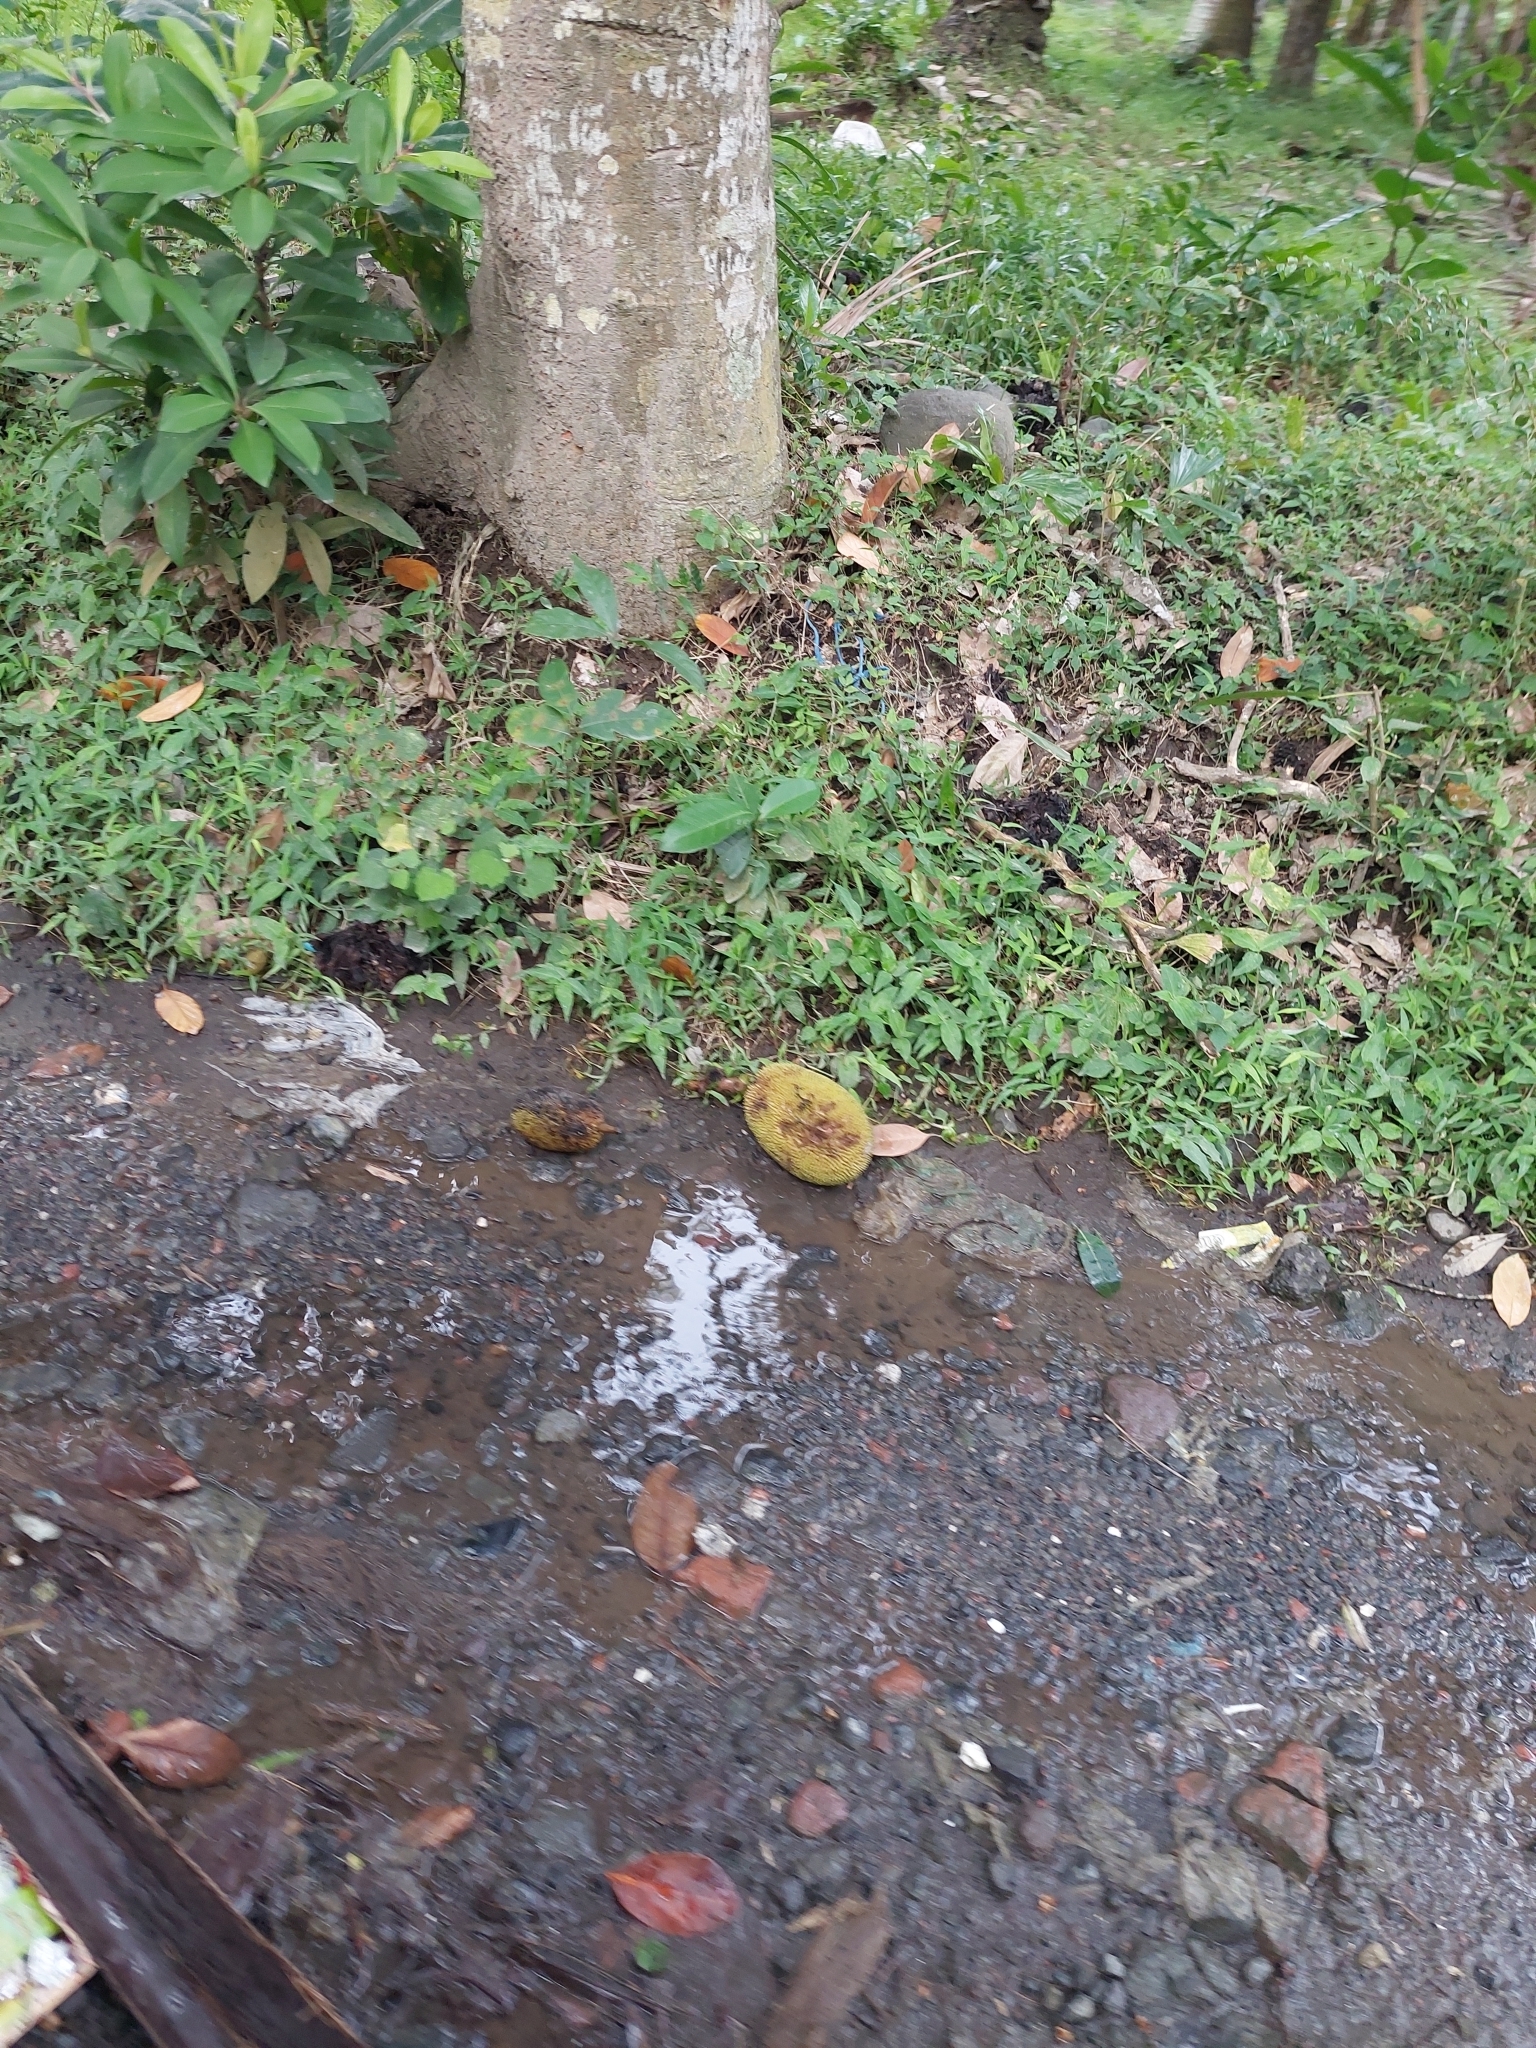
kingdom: Plantae
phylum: Tracheophyta
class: Magnoliopsida
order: Rosales
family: Moraceae
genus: Artocarpus
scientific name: Artocarpus heterophyllus
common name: Jackfruit
